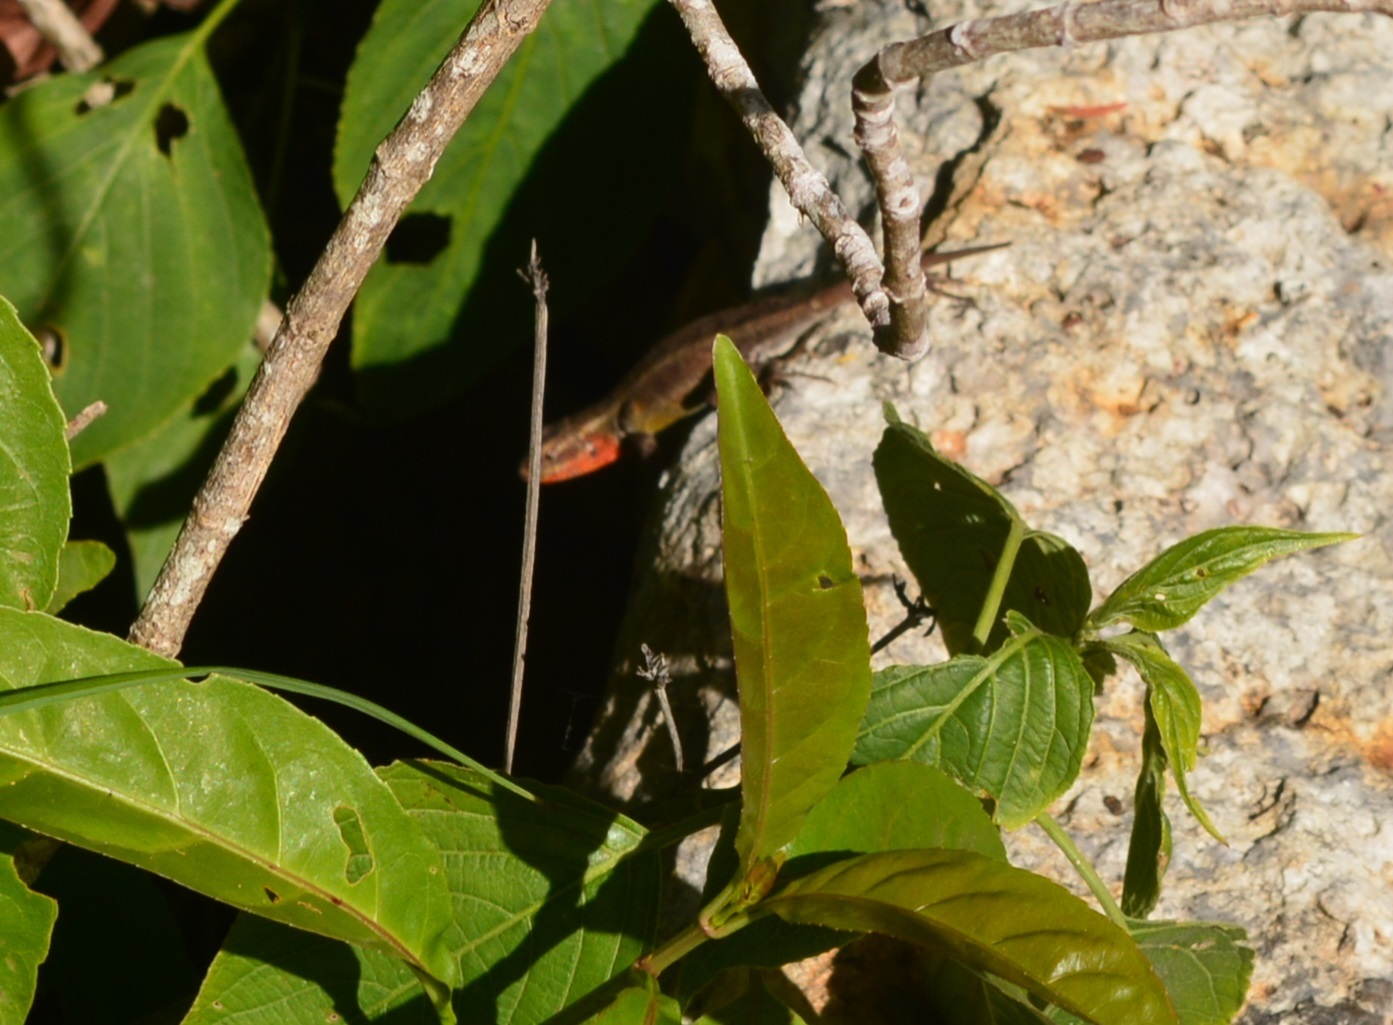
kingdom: Animalia
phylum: Chordata
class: Squamata
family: Phrynosomatidae
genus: Sceloporus
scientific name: Sceloporus variabilis
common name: Rosebelly lizard
